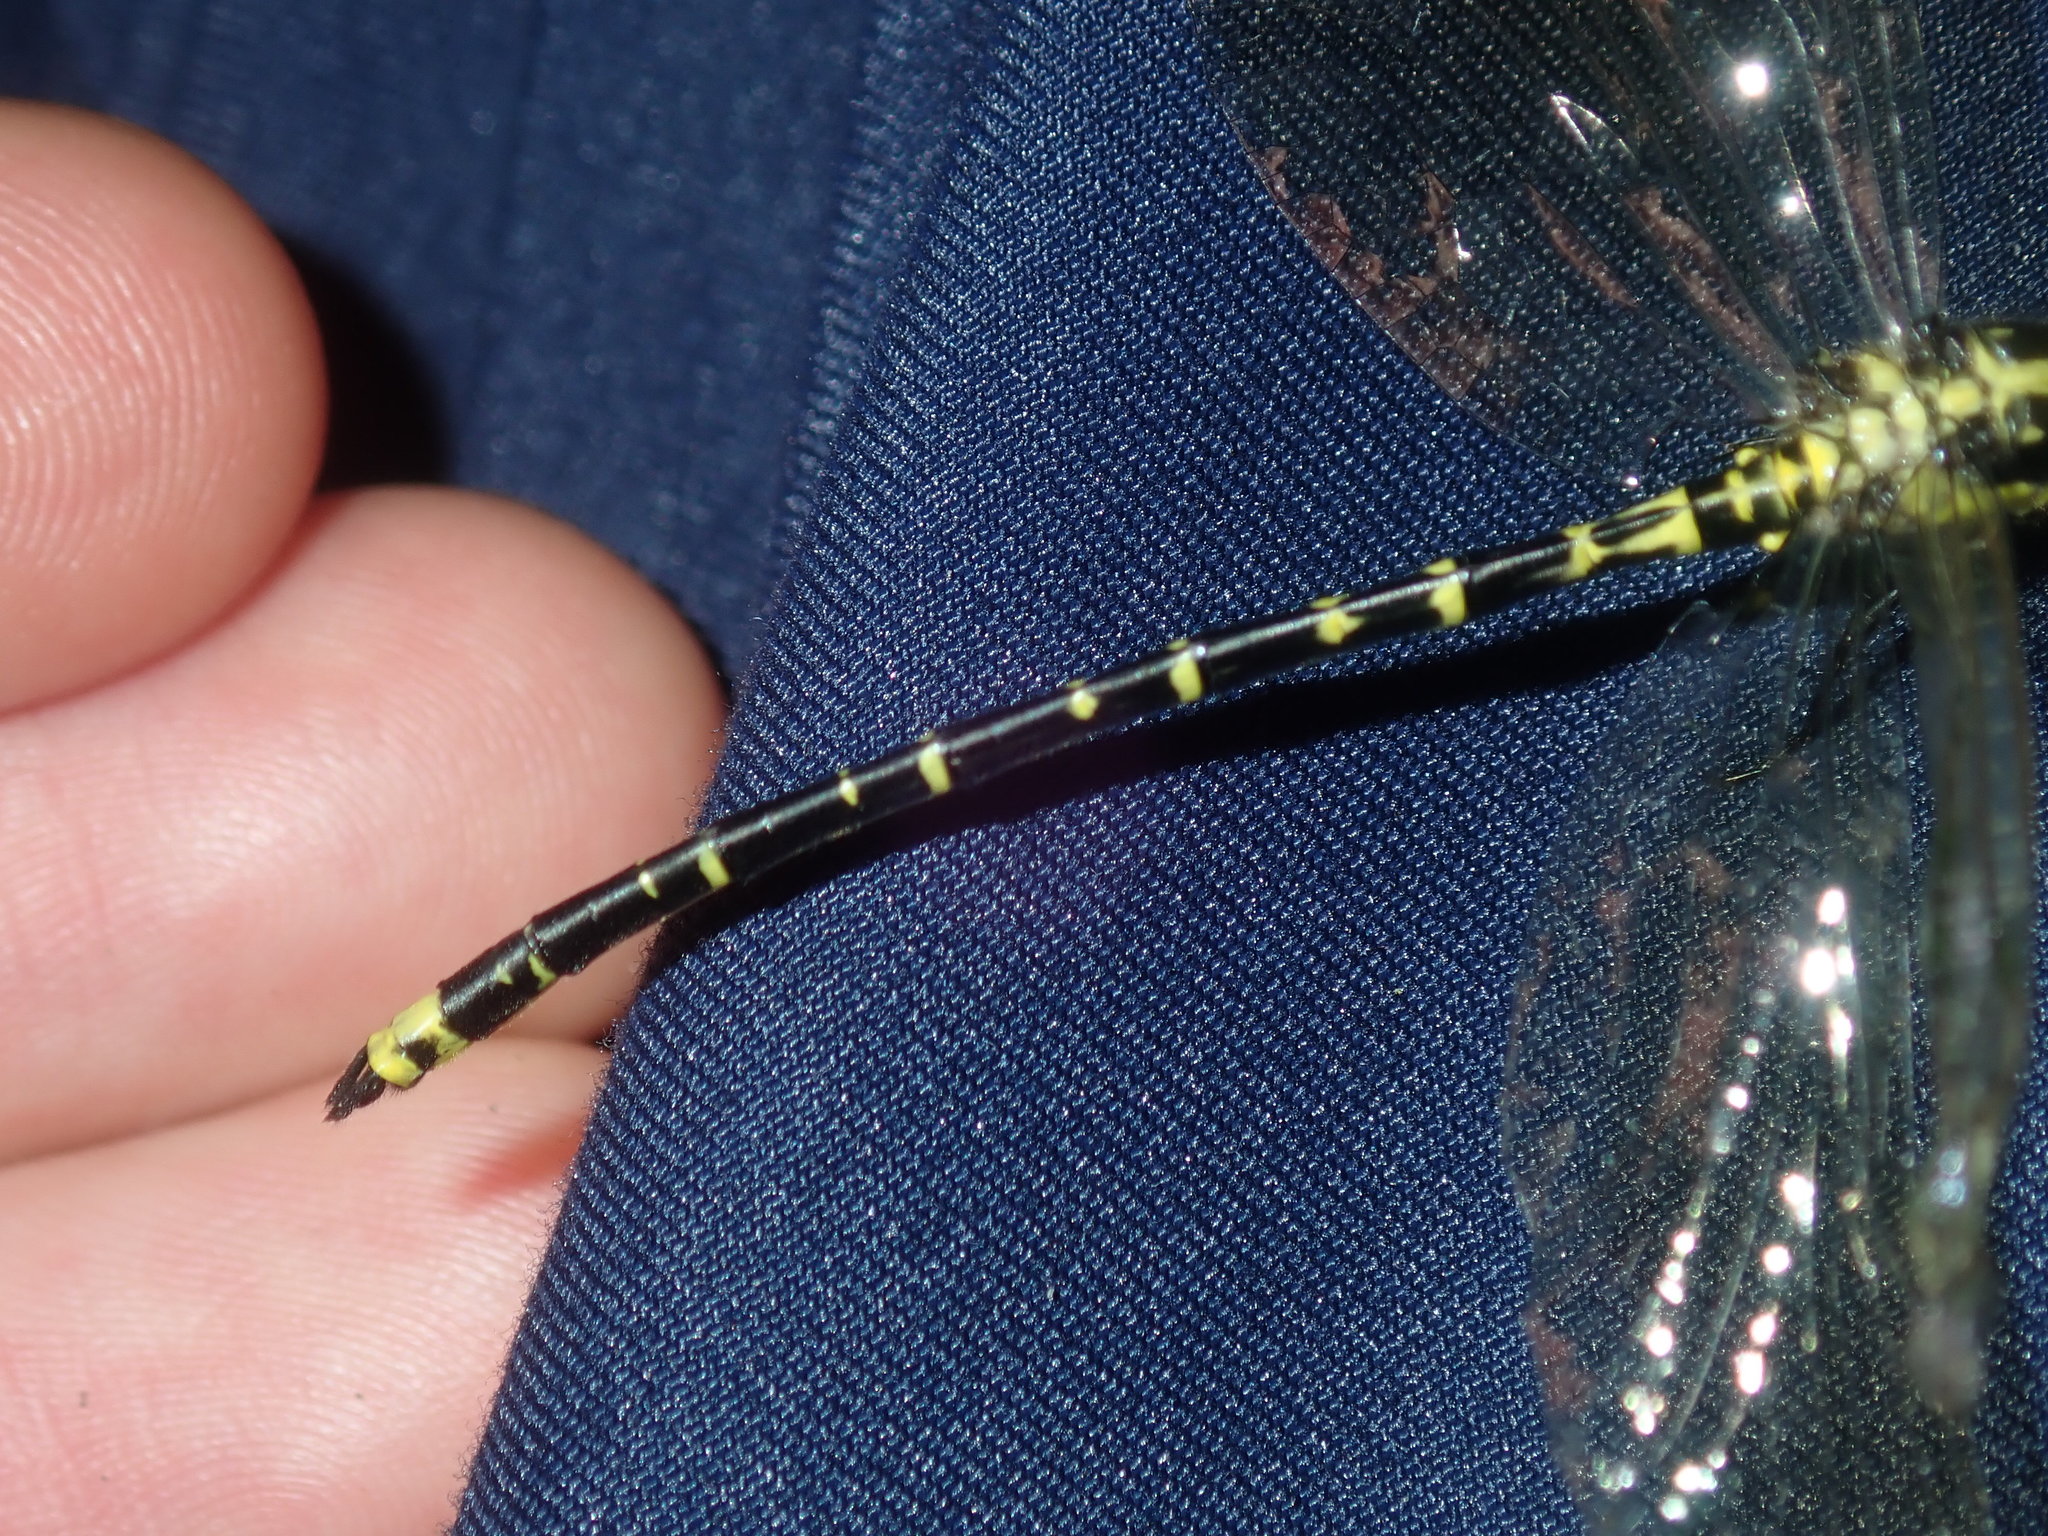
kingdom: Animalia
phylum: Arthropoda
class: Insecta
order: Odonata
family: Synthemistidae
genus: Choristhemis
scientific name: Choristhemis flavoterminata
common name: Yellow-tipped tigertail
